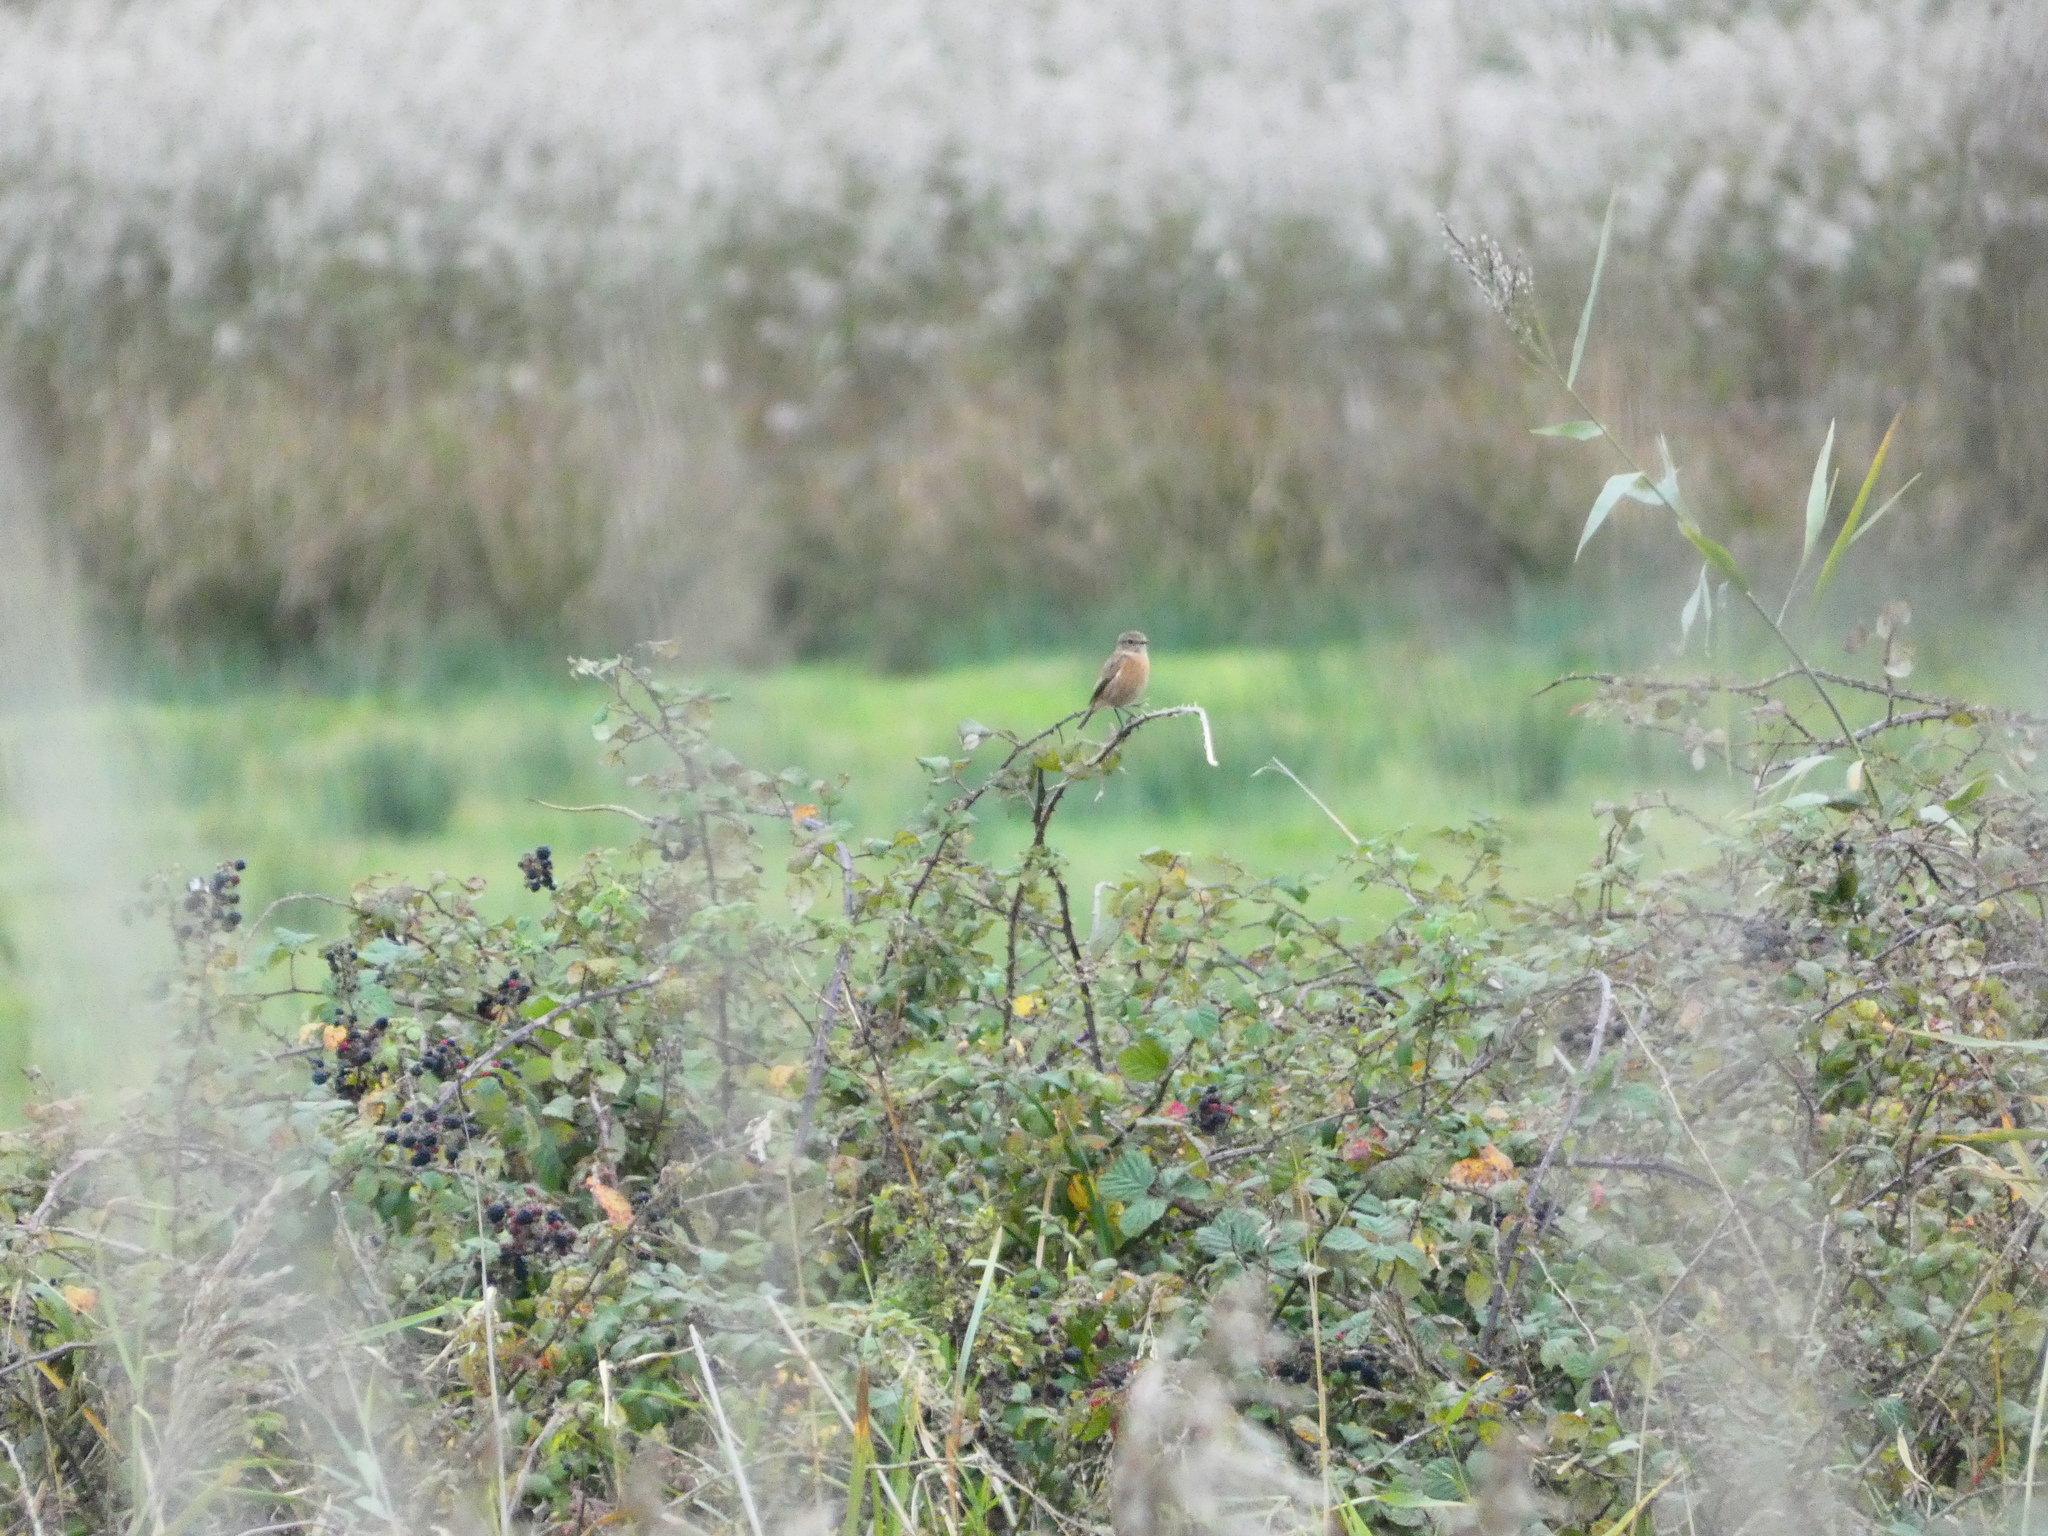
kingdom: Animalia
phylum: Chordata
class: Aves
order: Passeriformes
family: Muscicapidae
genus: Saxicola
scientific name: Saxicola rubicola
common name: European stonechat
